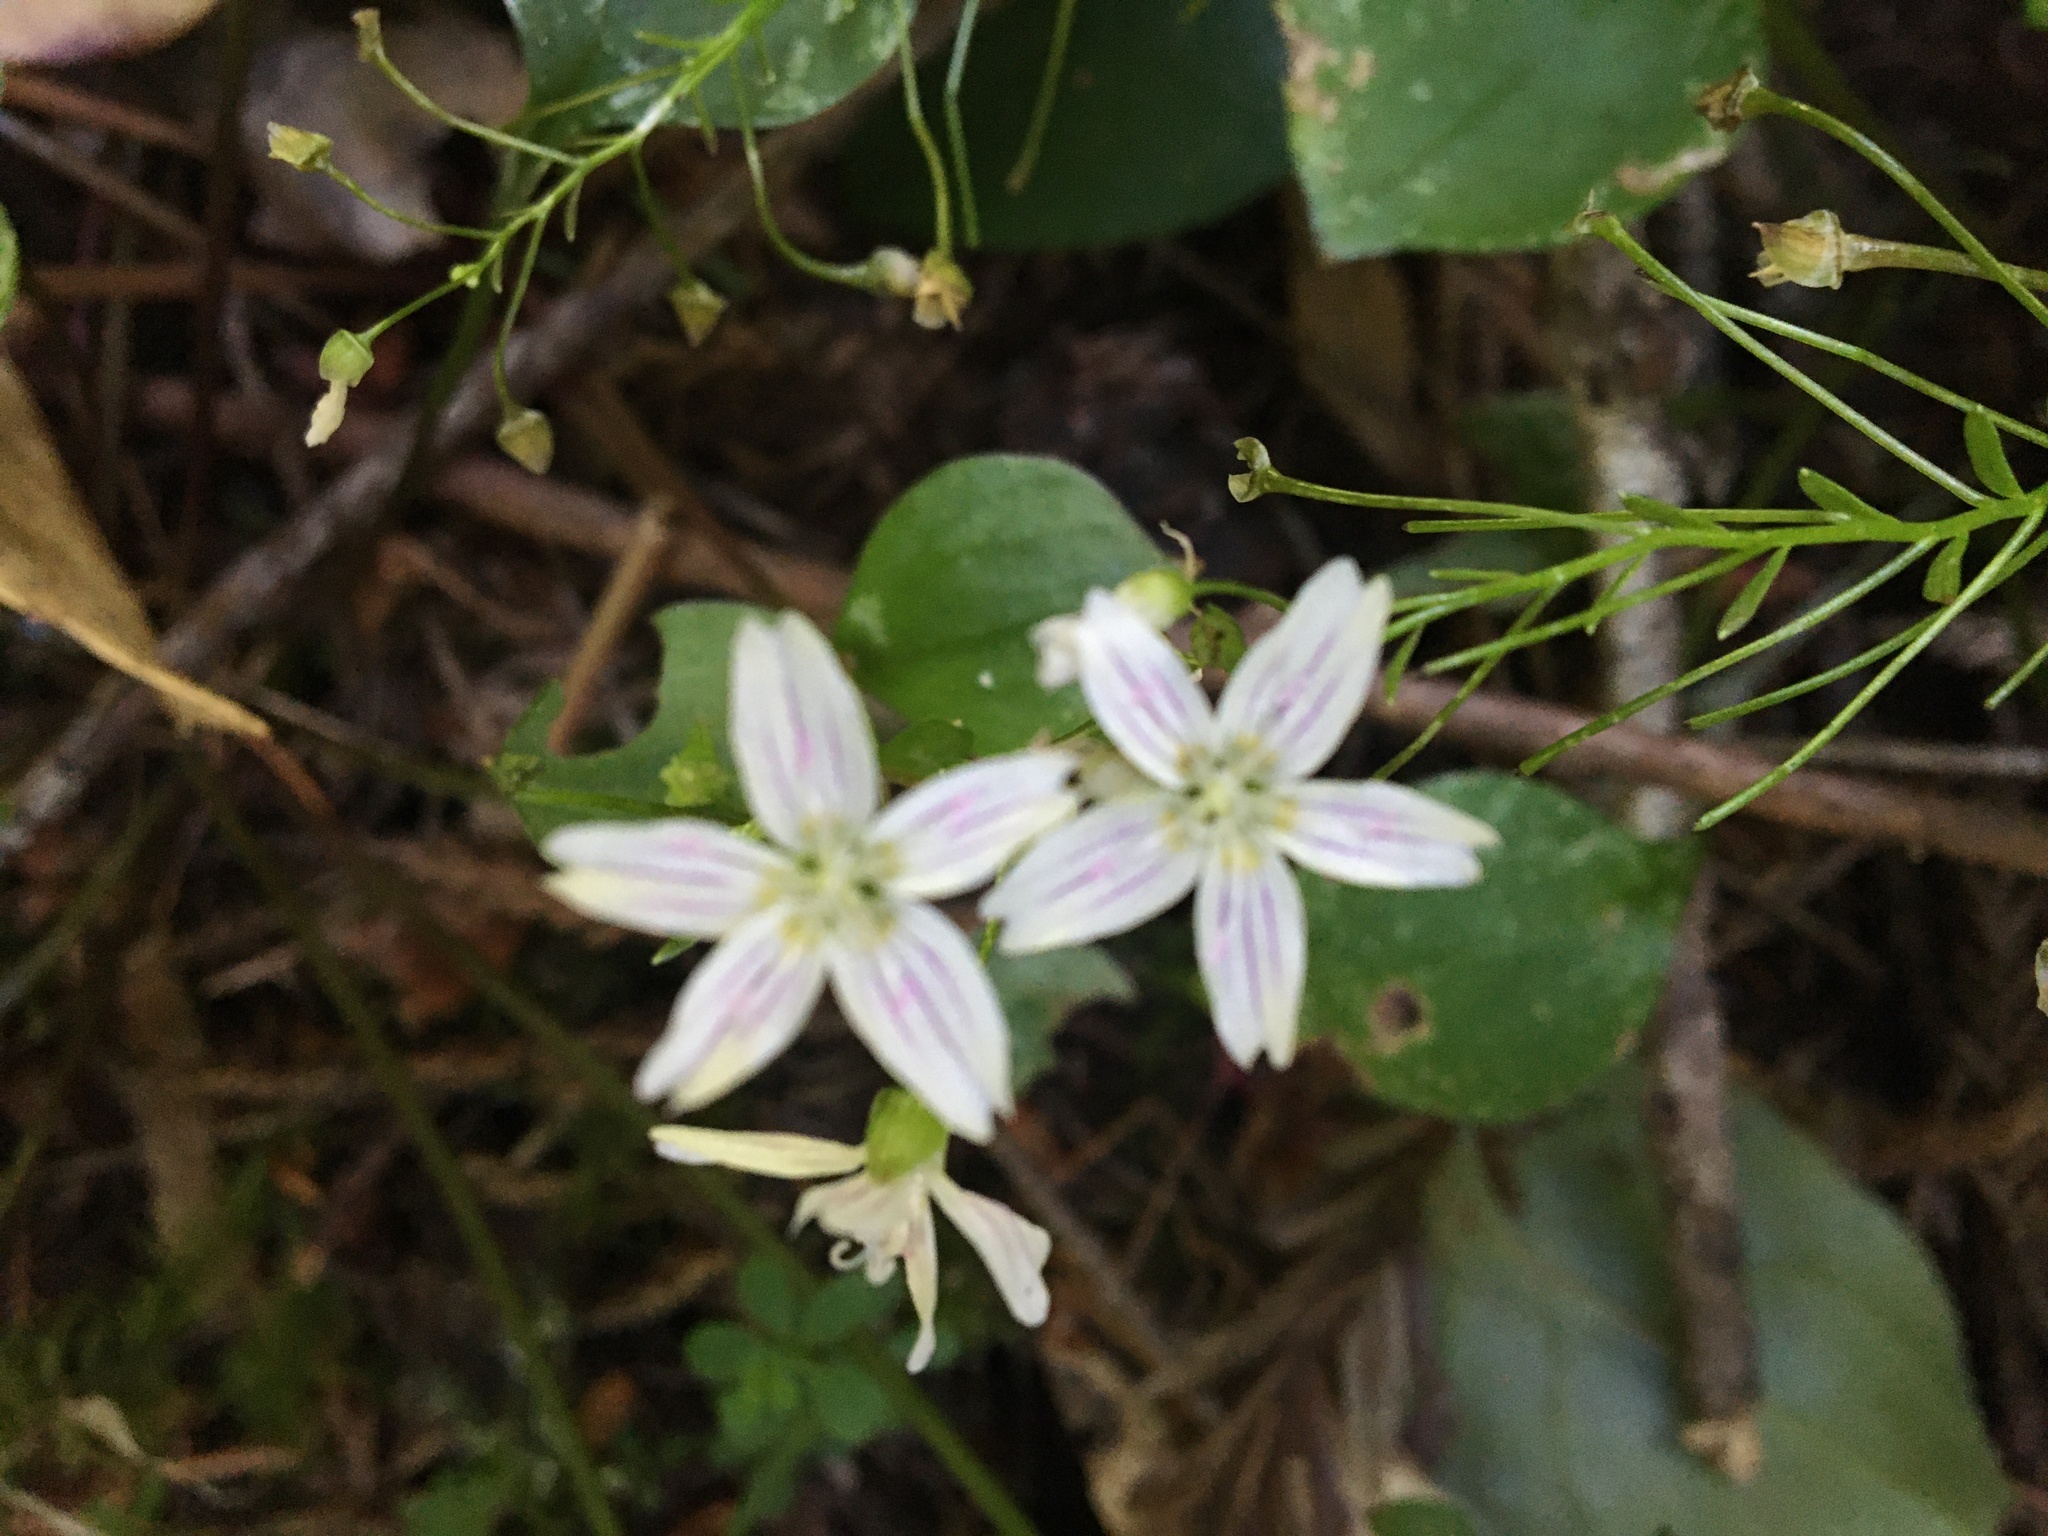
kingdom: Plantae
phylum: Tracheophyta
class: Magnoliopsida
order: Caryophyllales
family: Montiaceae
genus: Claytonia
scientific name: Claytonia sibirica
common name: Pink purslane
